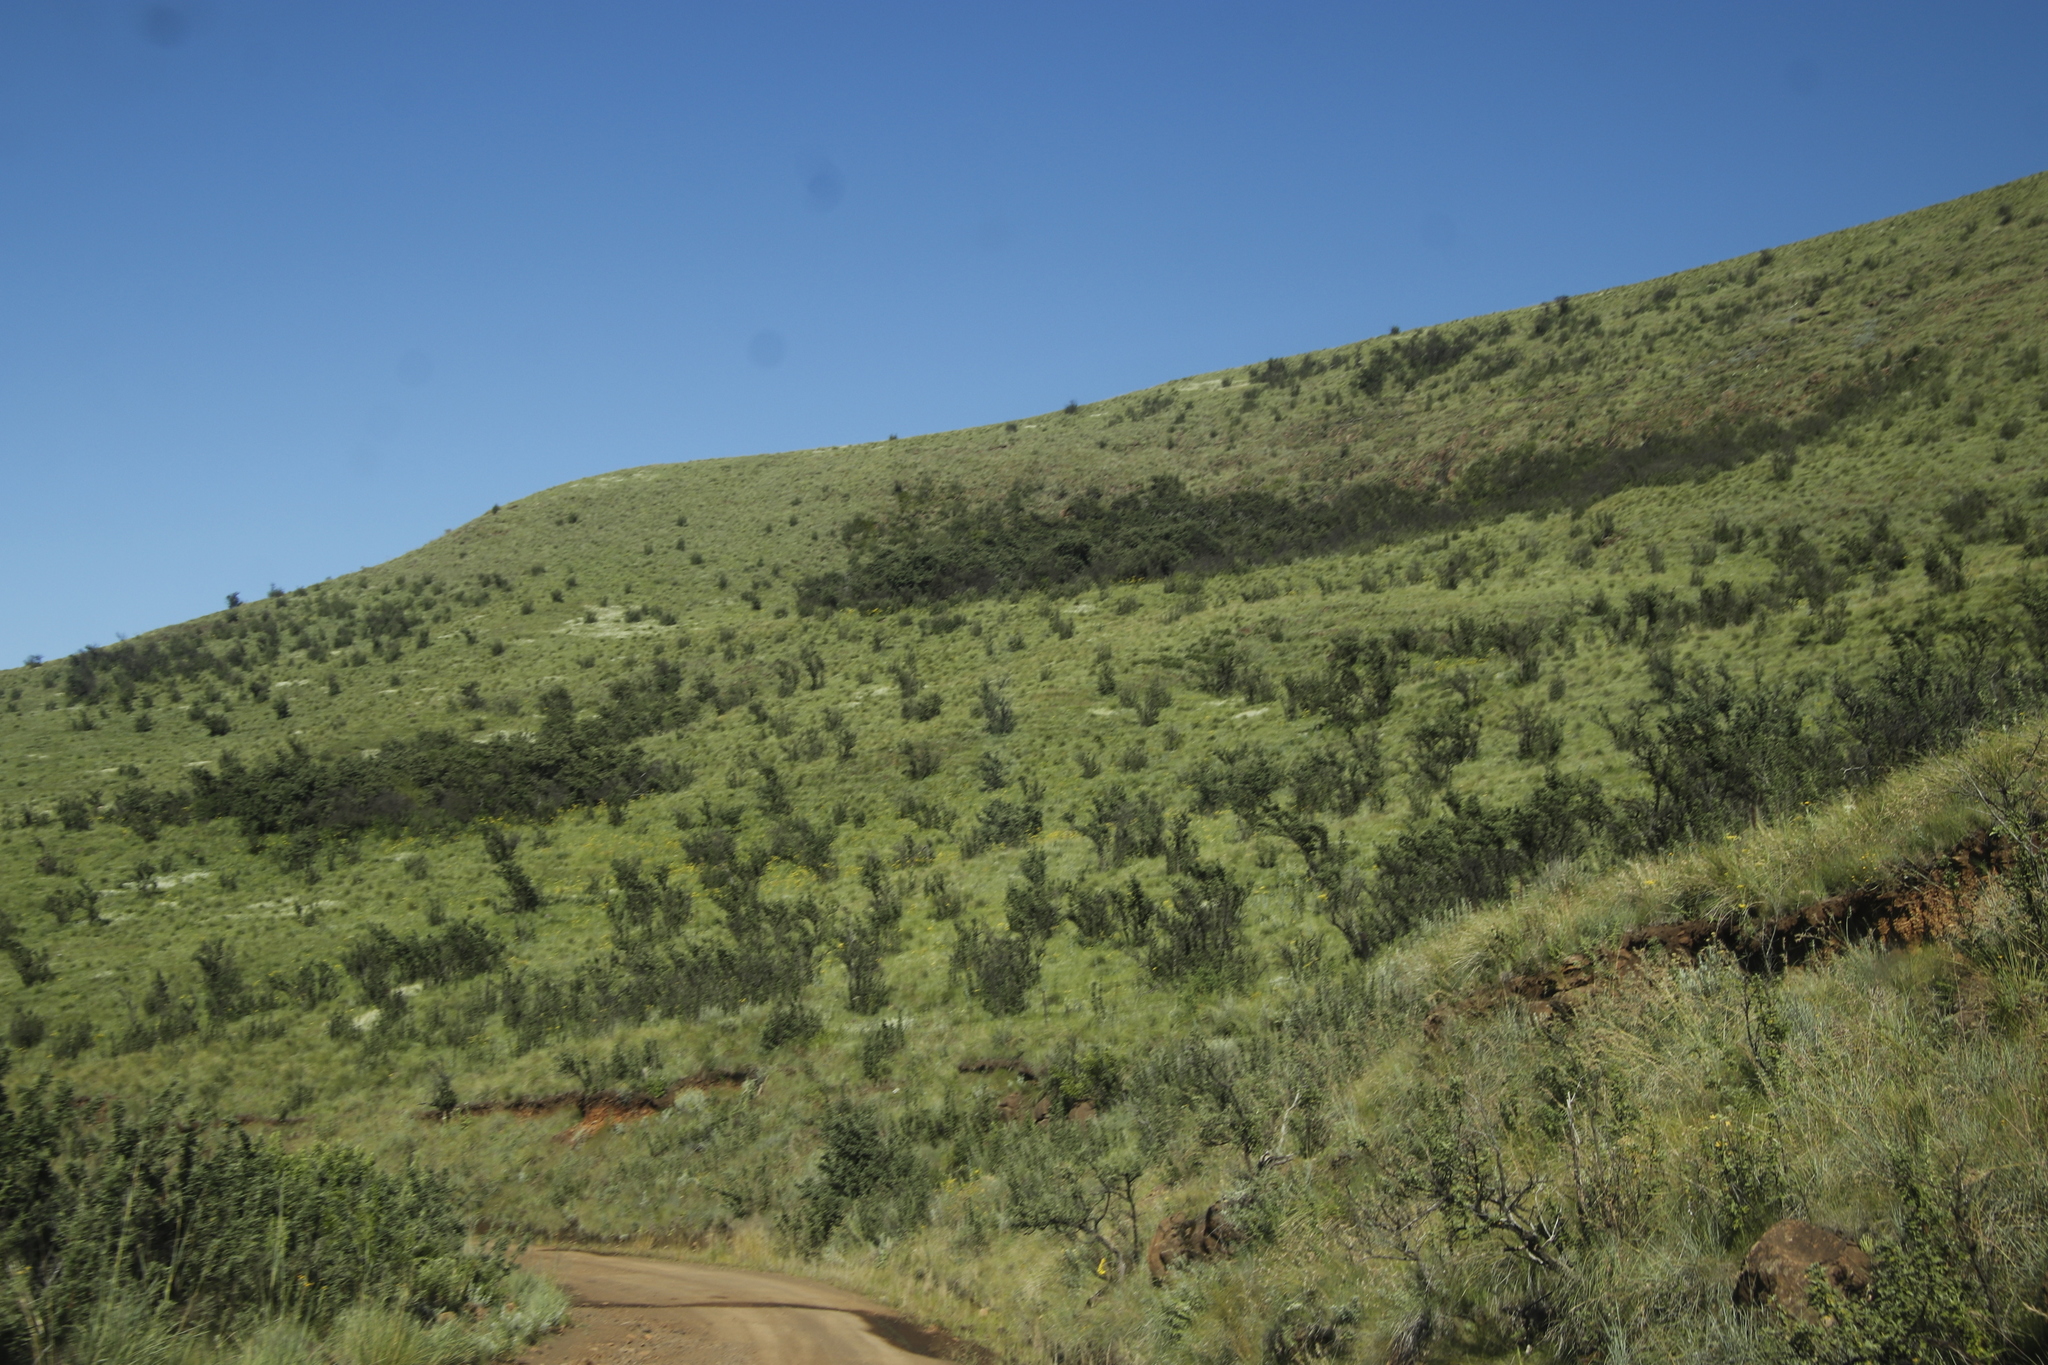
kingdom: Plantae
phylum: Tracheophyta
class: Magnoliopsida
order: Rosales
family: Rosaceae
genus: Leucosidea
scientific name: Leucosidea sericea
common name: Oldwood
